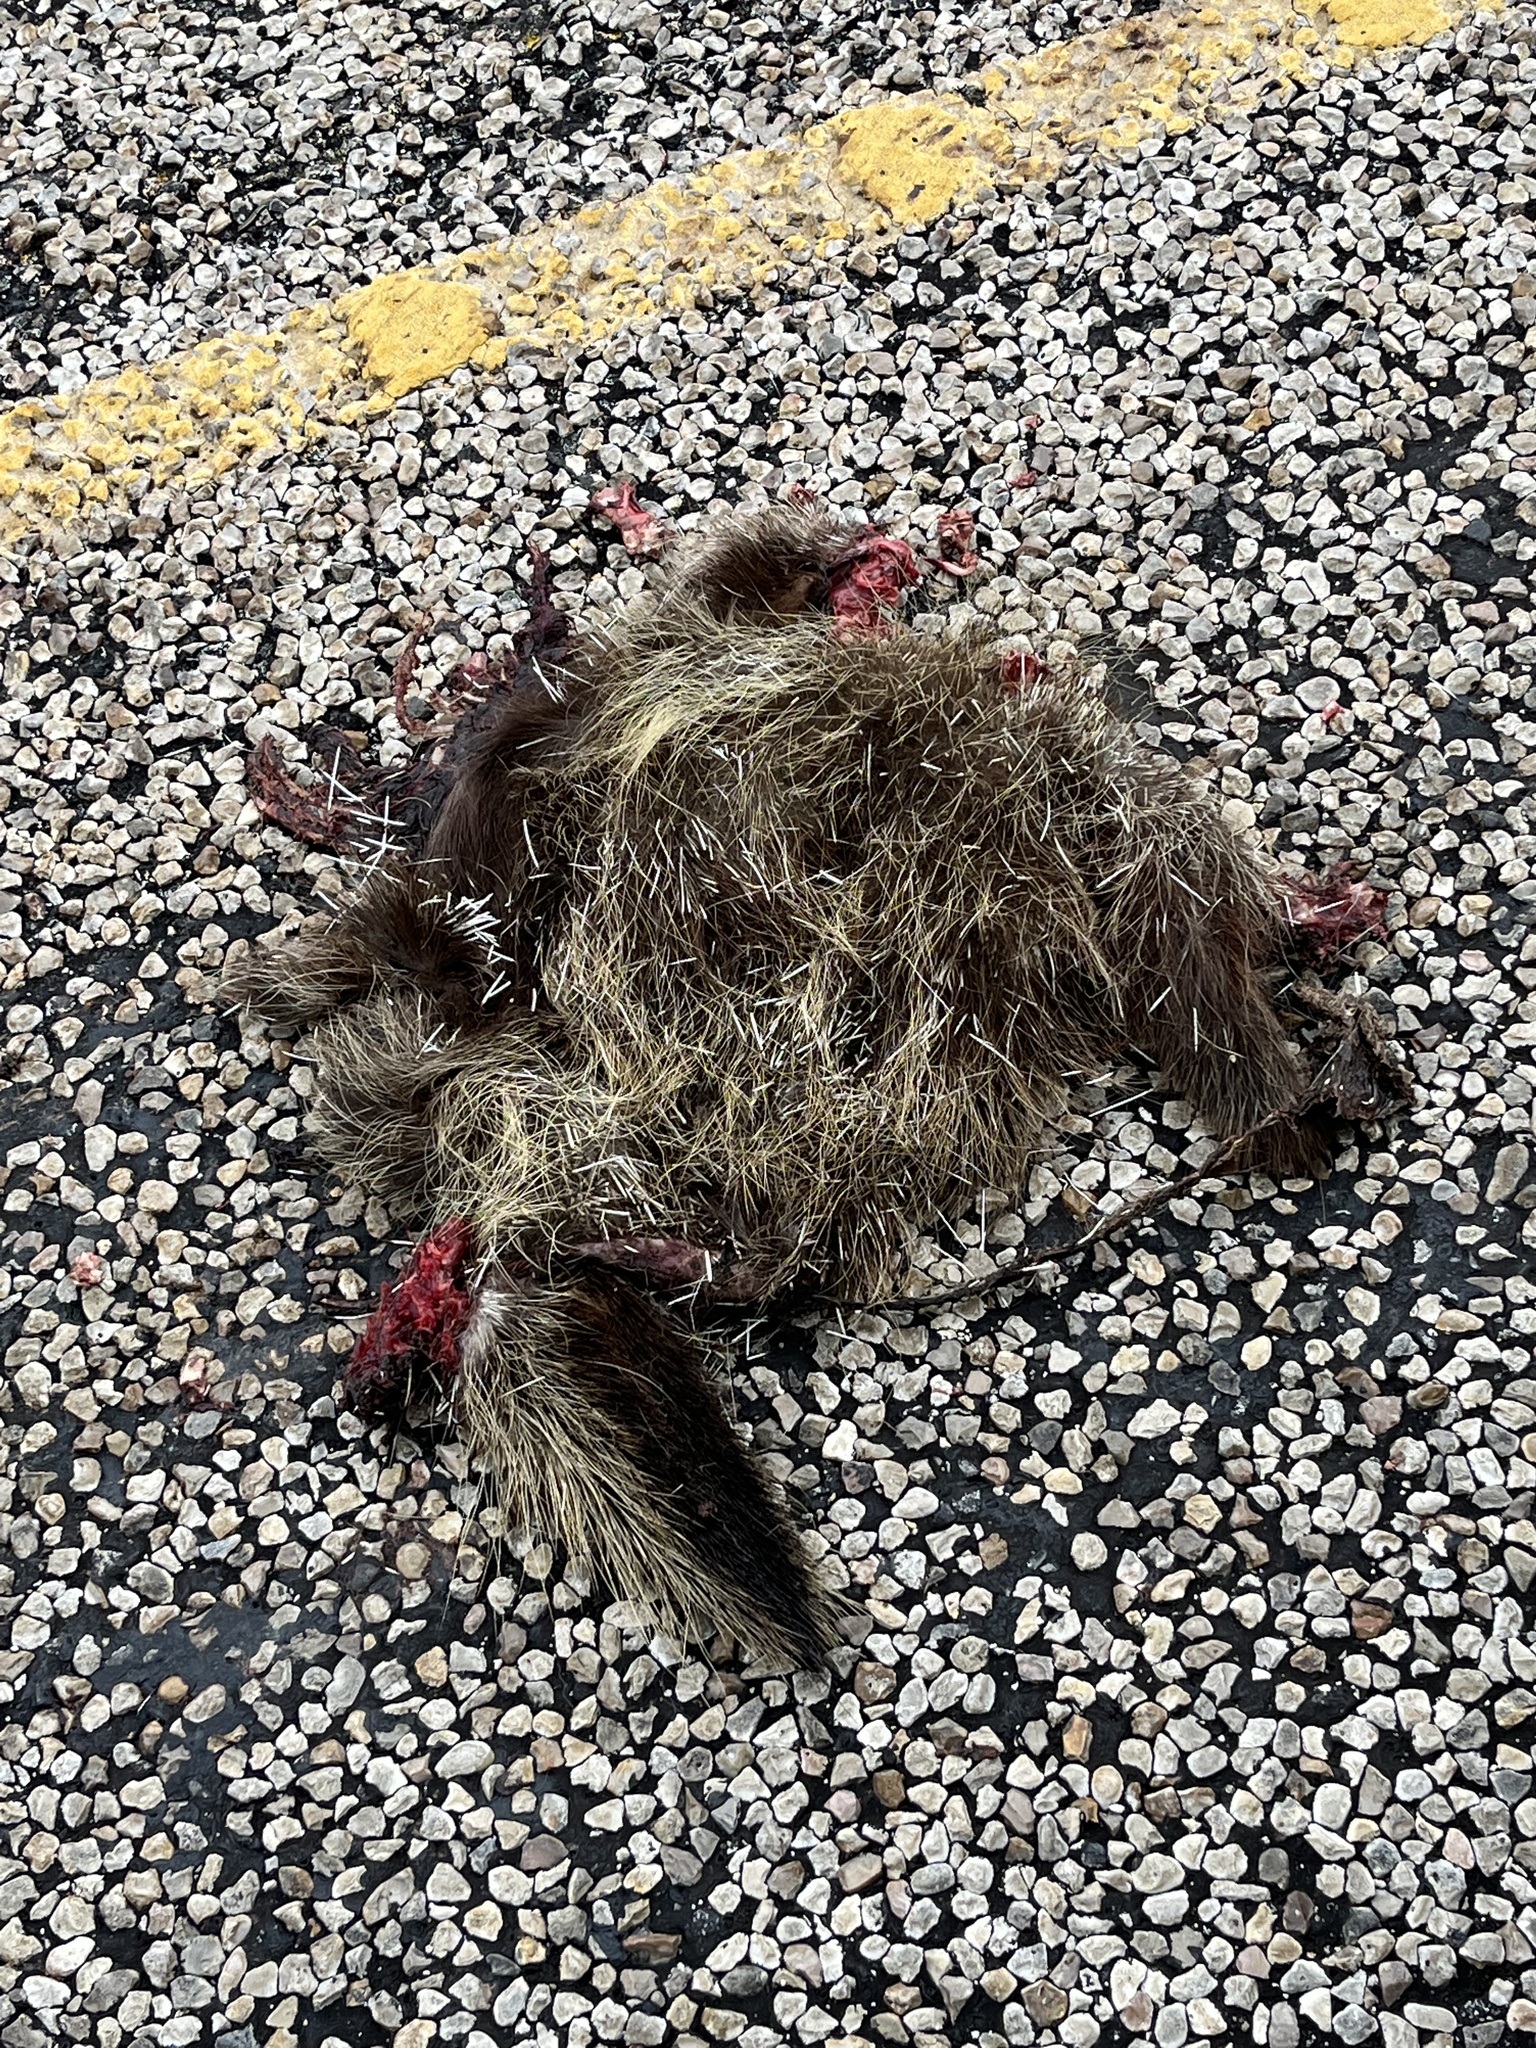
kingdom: Animalia
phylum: Chordata
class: Mammalia
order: Rodentia
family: Erethizontidae
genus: Erethizon
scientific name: Erethizon dorsatus
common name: North american porcupine
